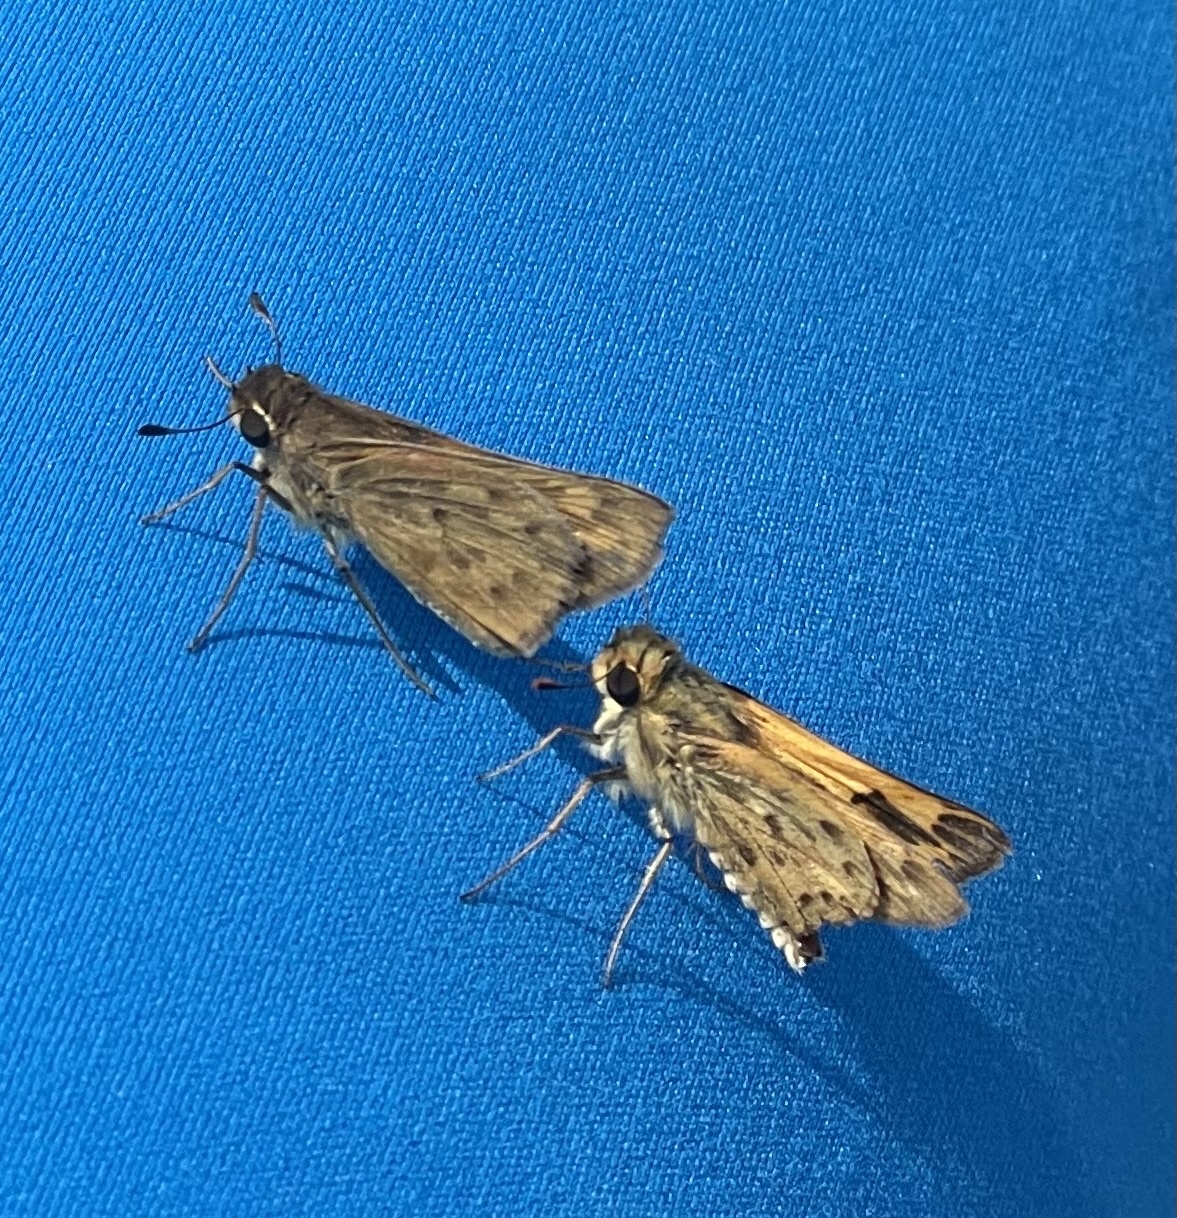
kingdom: Animalia
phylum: Arthropoda
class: Insecta
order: Lepidoptera
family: Hesperiidae
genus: Hylephila
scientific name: Hylephila phyleus
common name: Fiery skipper
